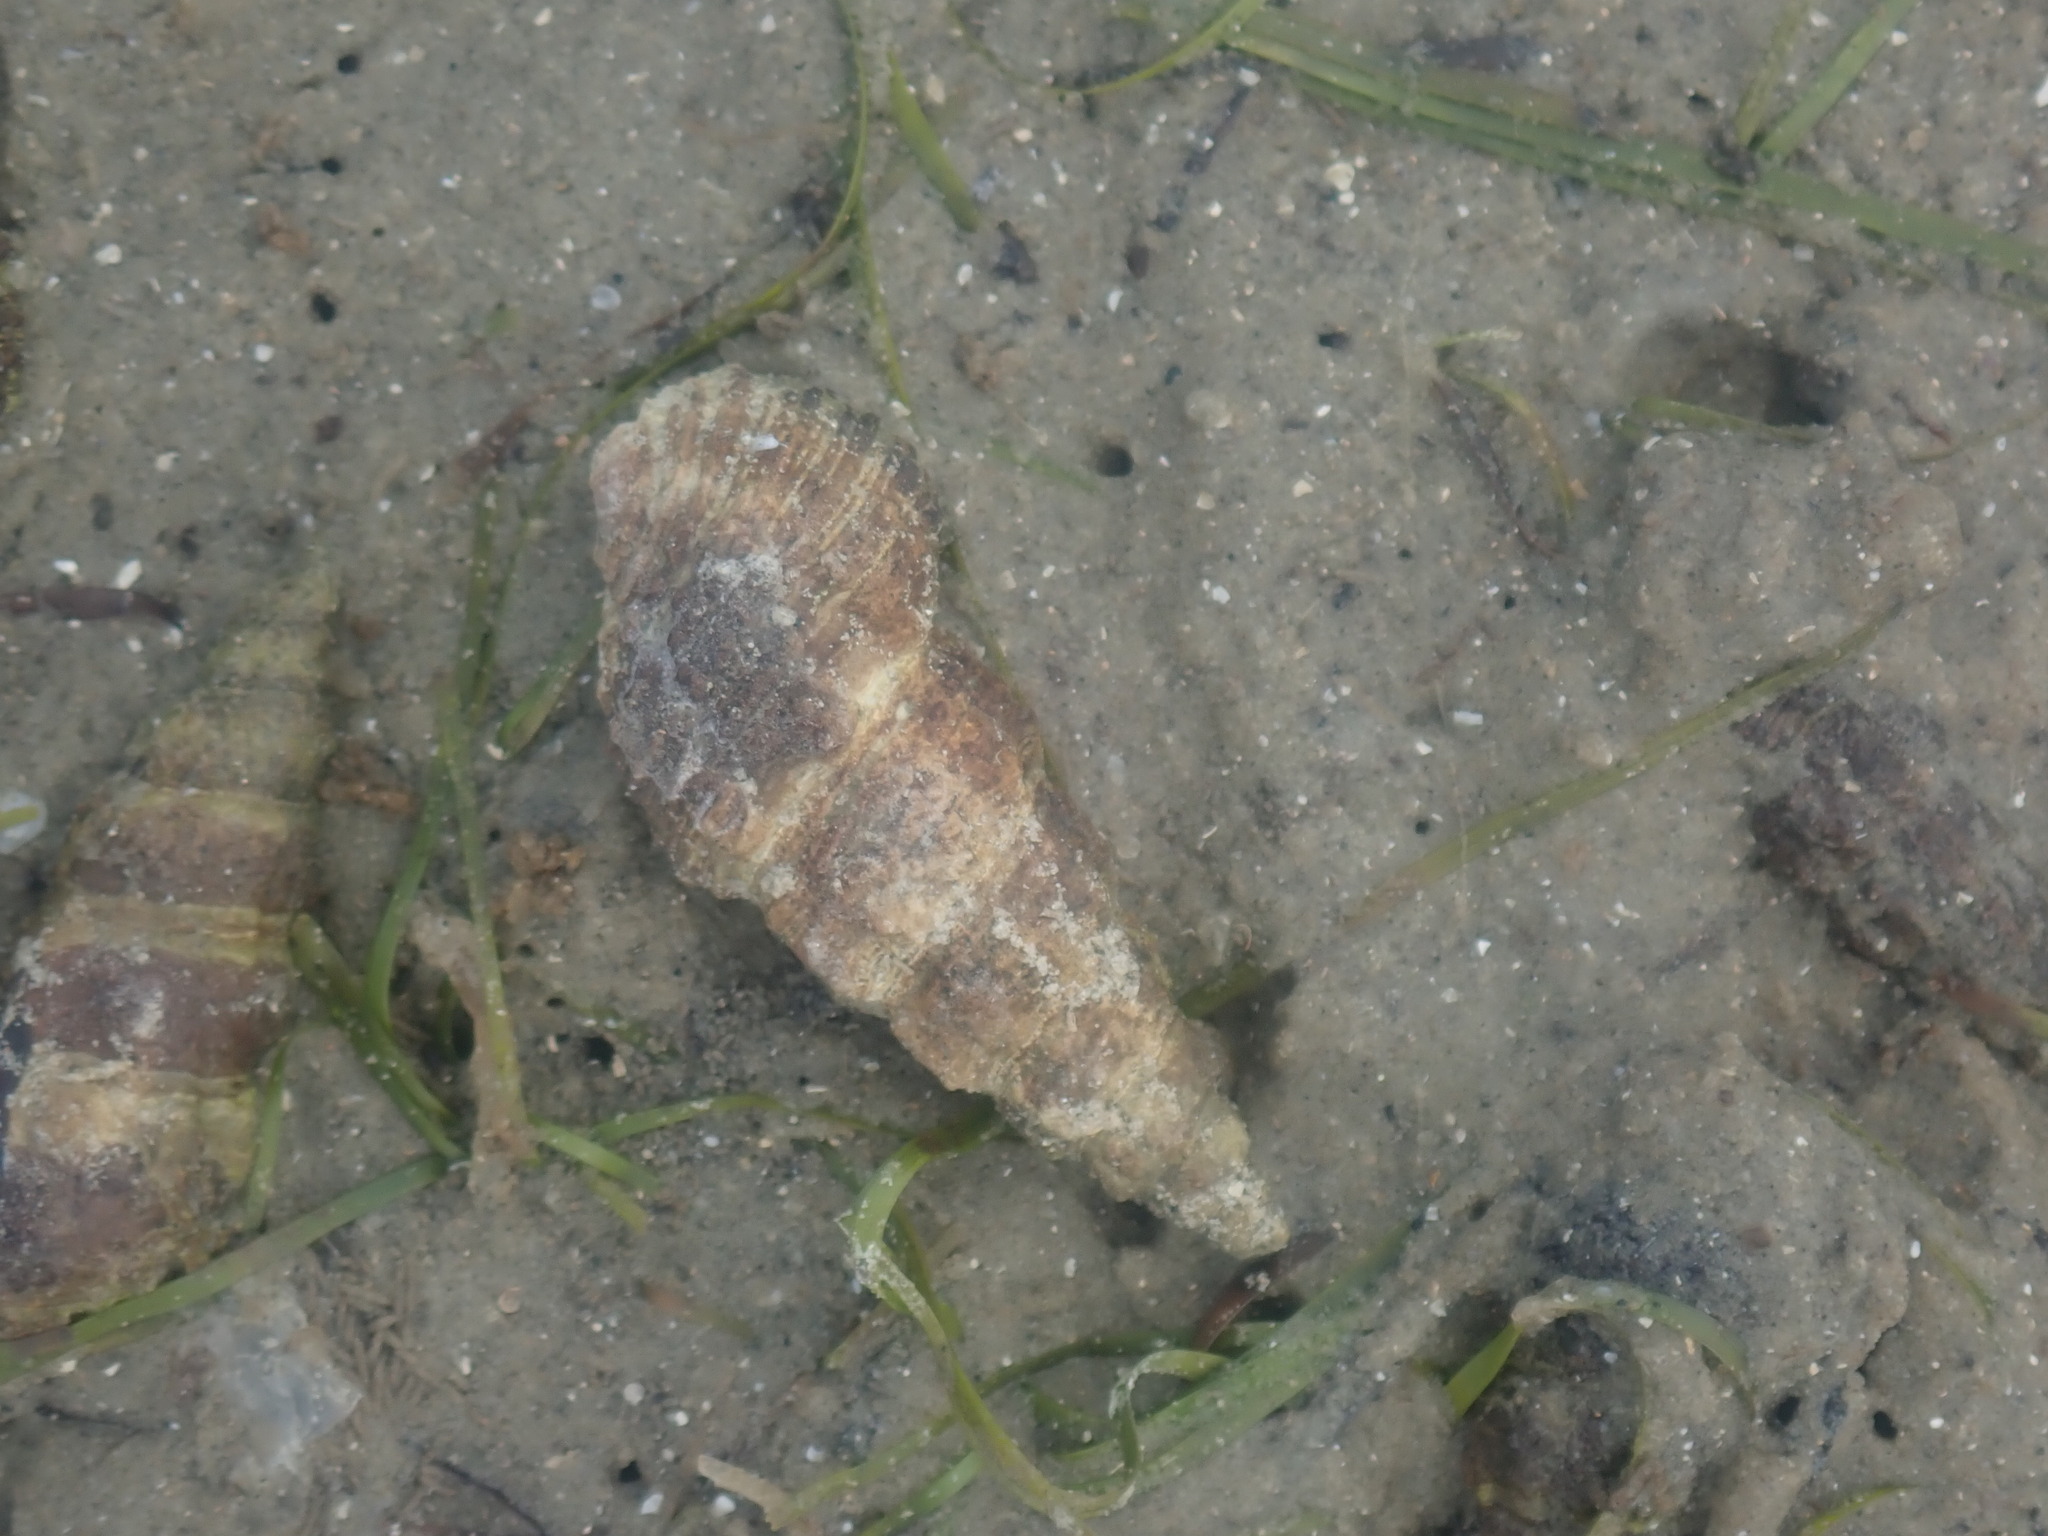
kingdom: Animalia
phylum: Mollusca
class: Gastropoda
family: Batillariidae
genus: Batillaria
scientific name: Batillaria australis
